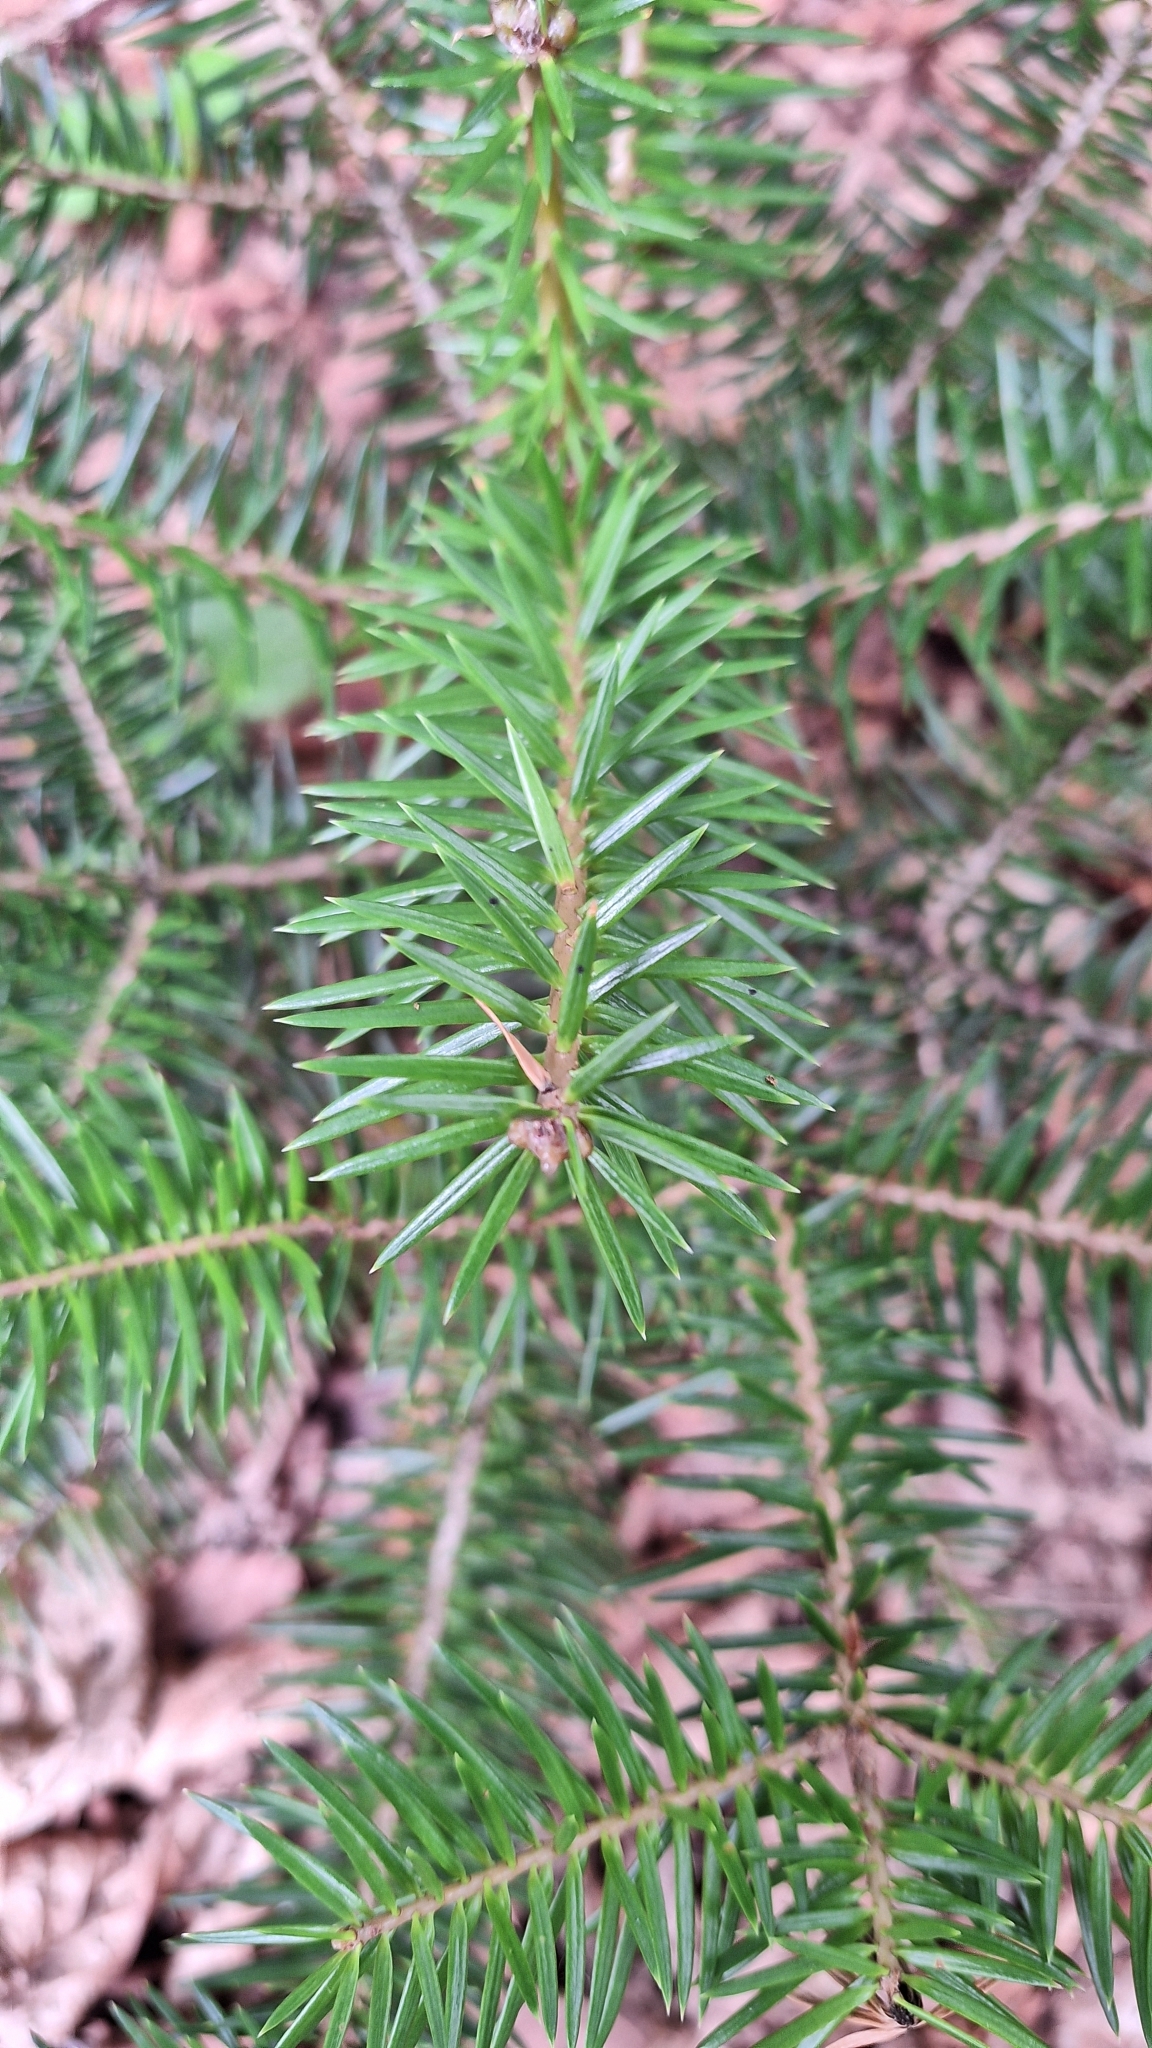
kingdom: Plantae
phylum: Tracheophyta
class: Pinopsida
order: Pinales
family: Pinaceae
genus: Abies
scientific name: Abies holophylla
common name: Manchurian fir
